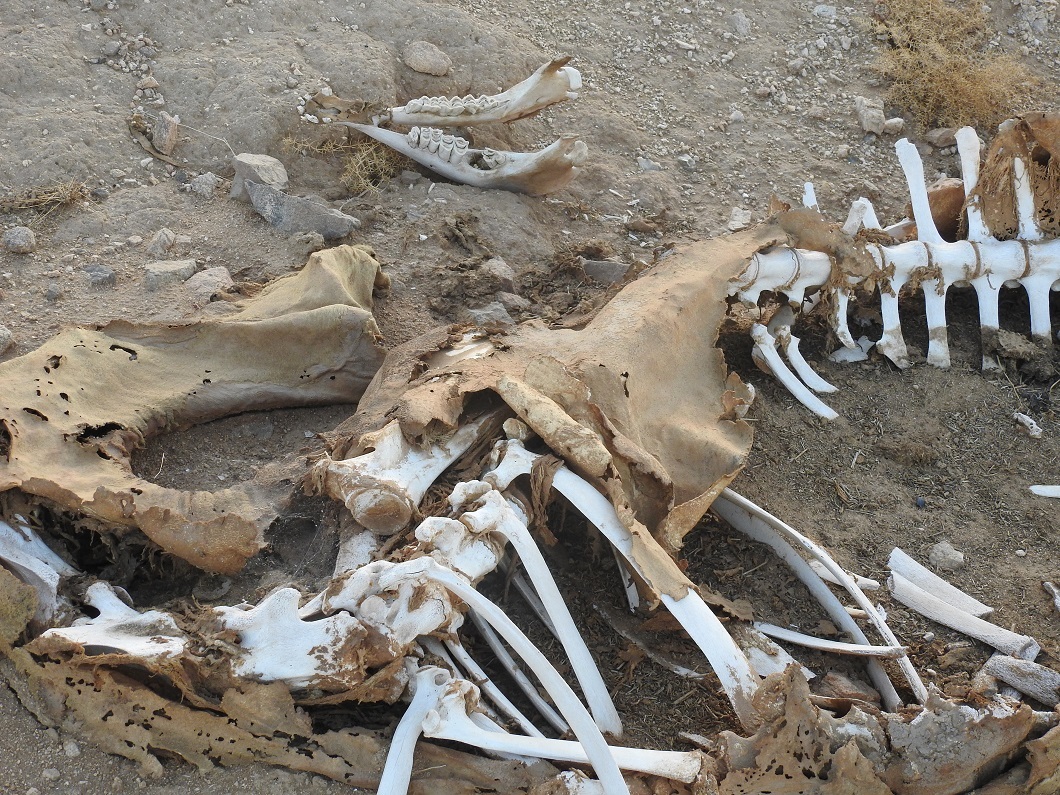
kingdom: Animalia
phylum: Chordata
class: Mammalia
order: Artiodactyla
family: Camelidae
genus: Camelus
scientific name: Camelus dromedarius
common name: One-humped camel
